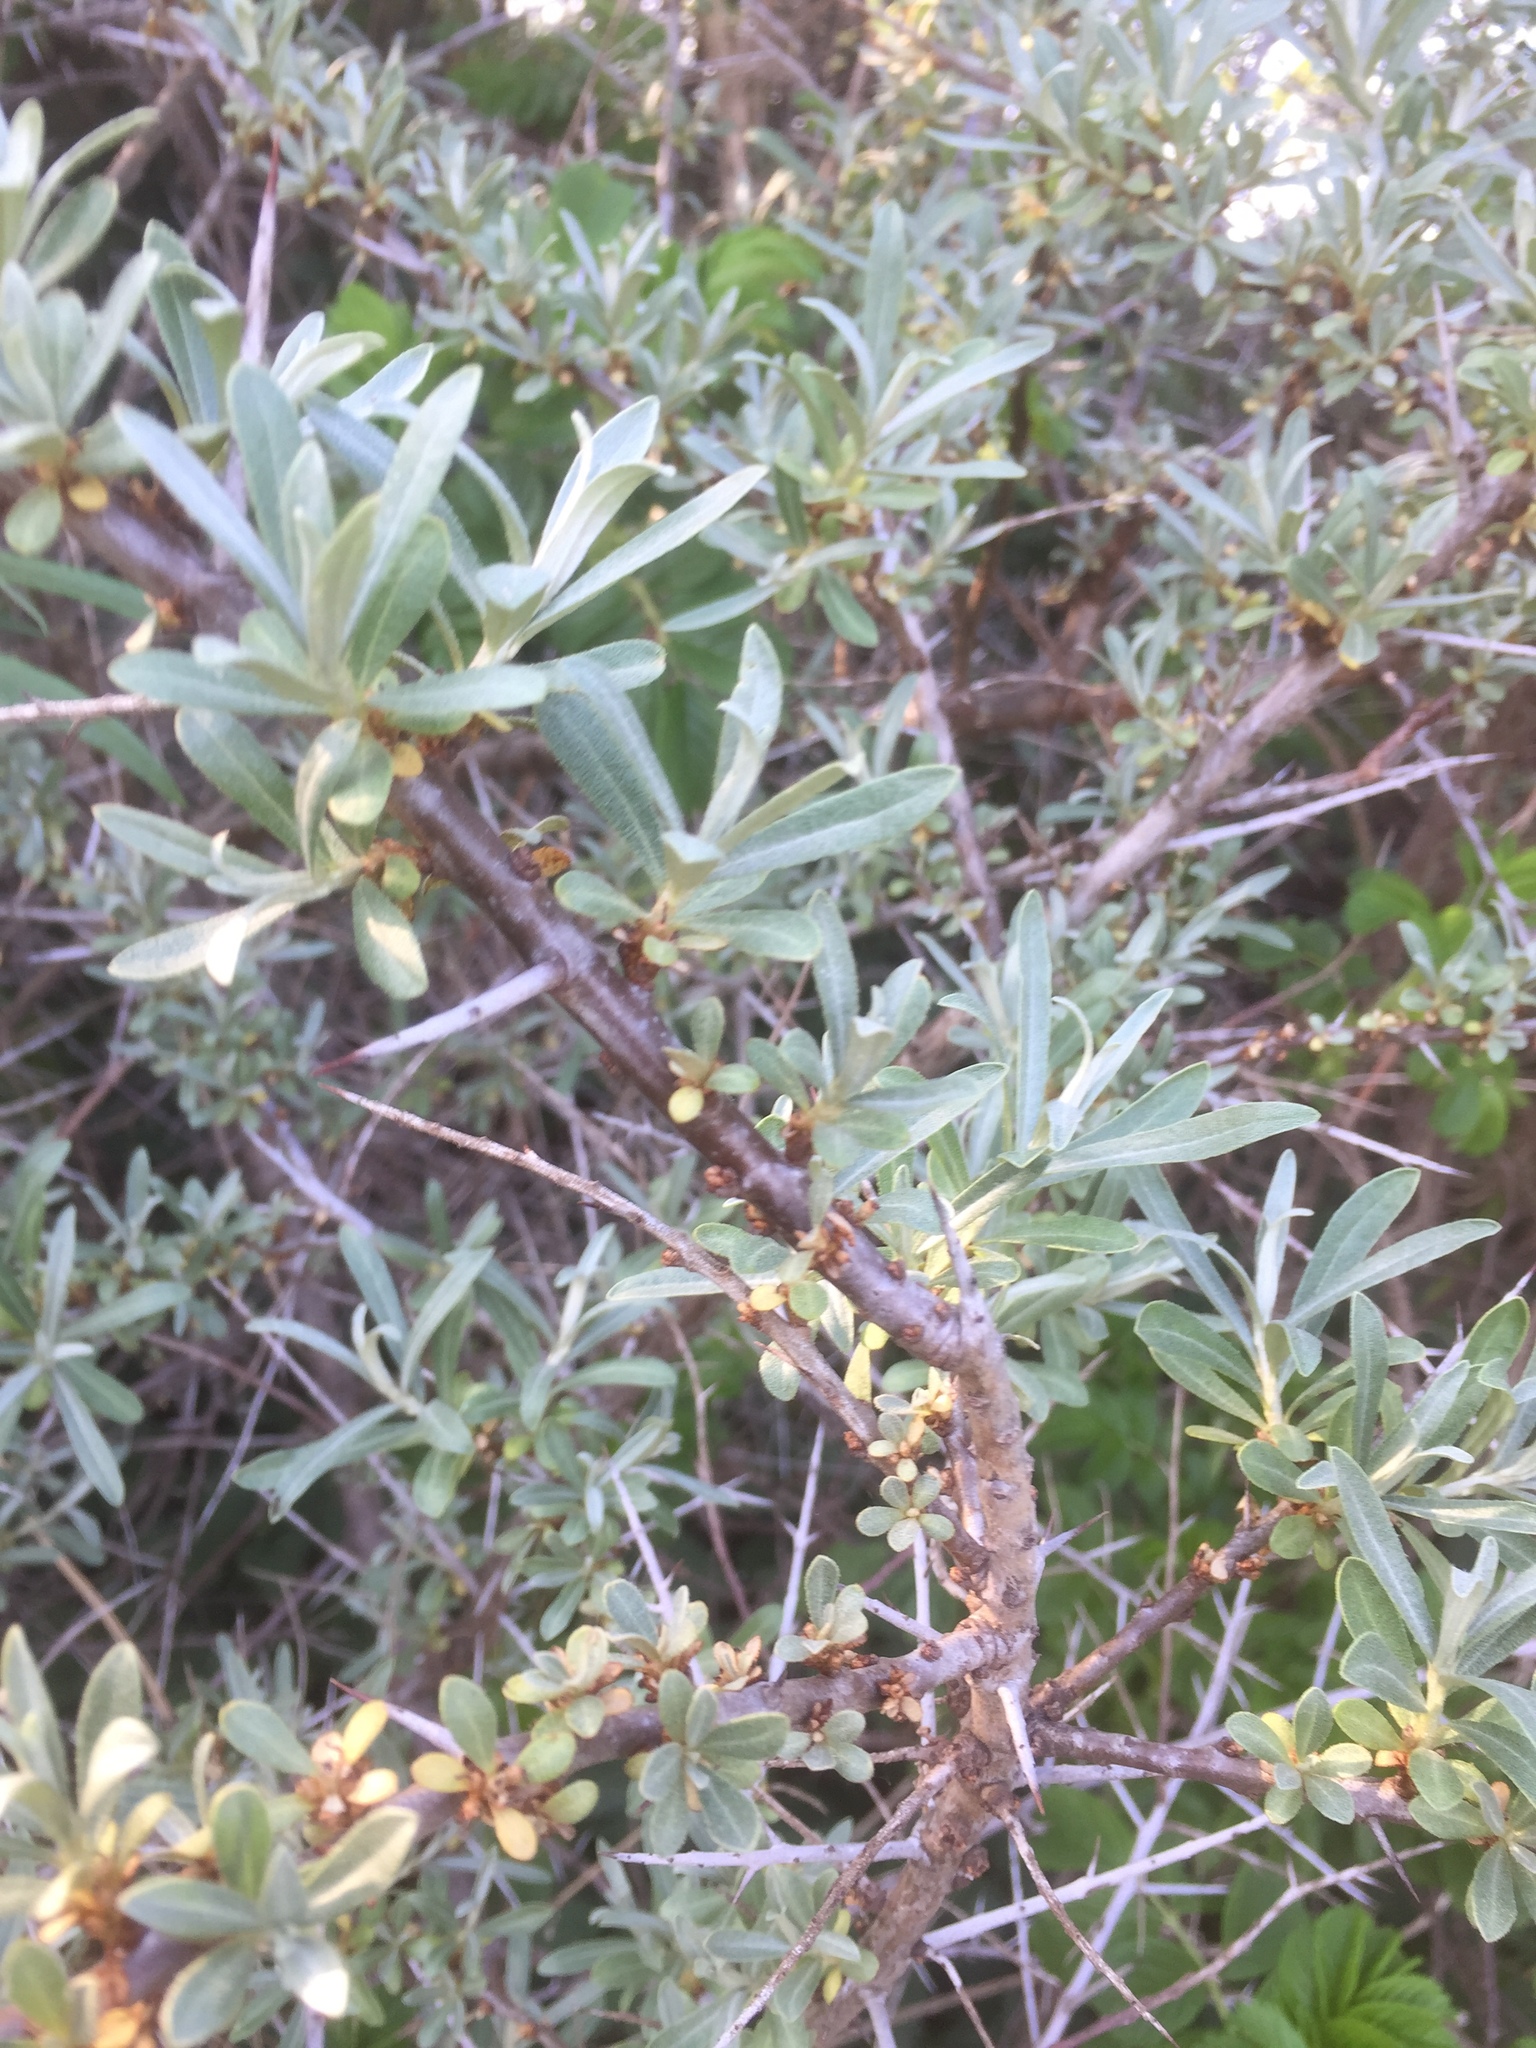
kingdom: Plantae
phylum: Tracheophyta
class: Magnoliopsida
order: Rosales
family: Elaeagnaceae
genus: Hippophae
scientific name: Hippophae rhamnoides
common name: Sea-buckthorn
